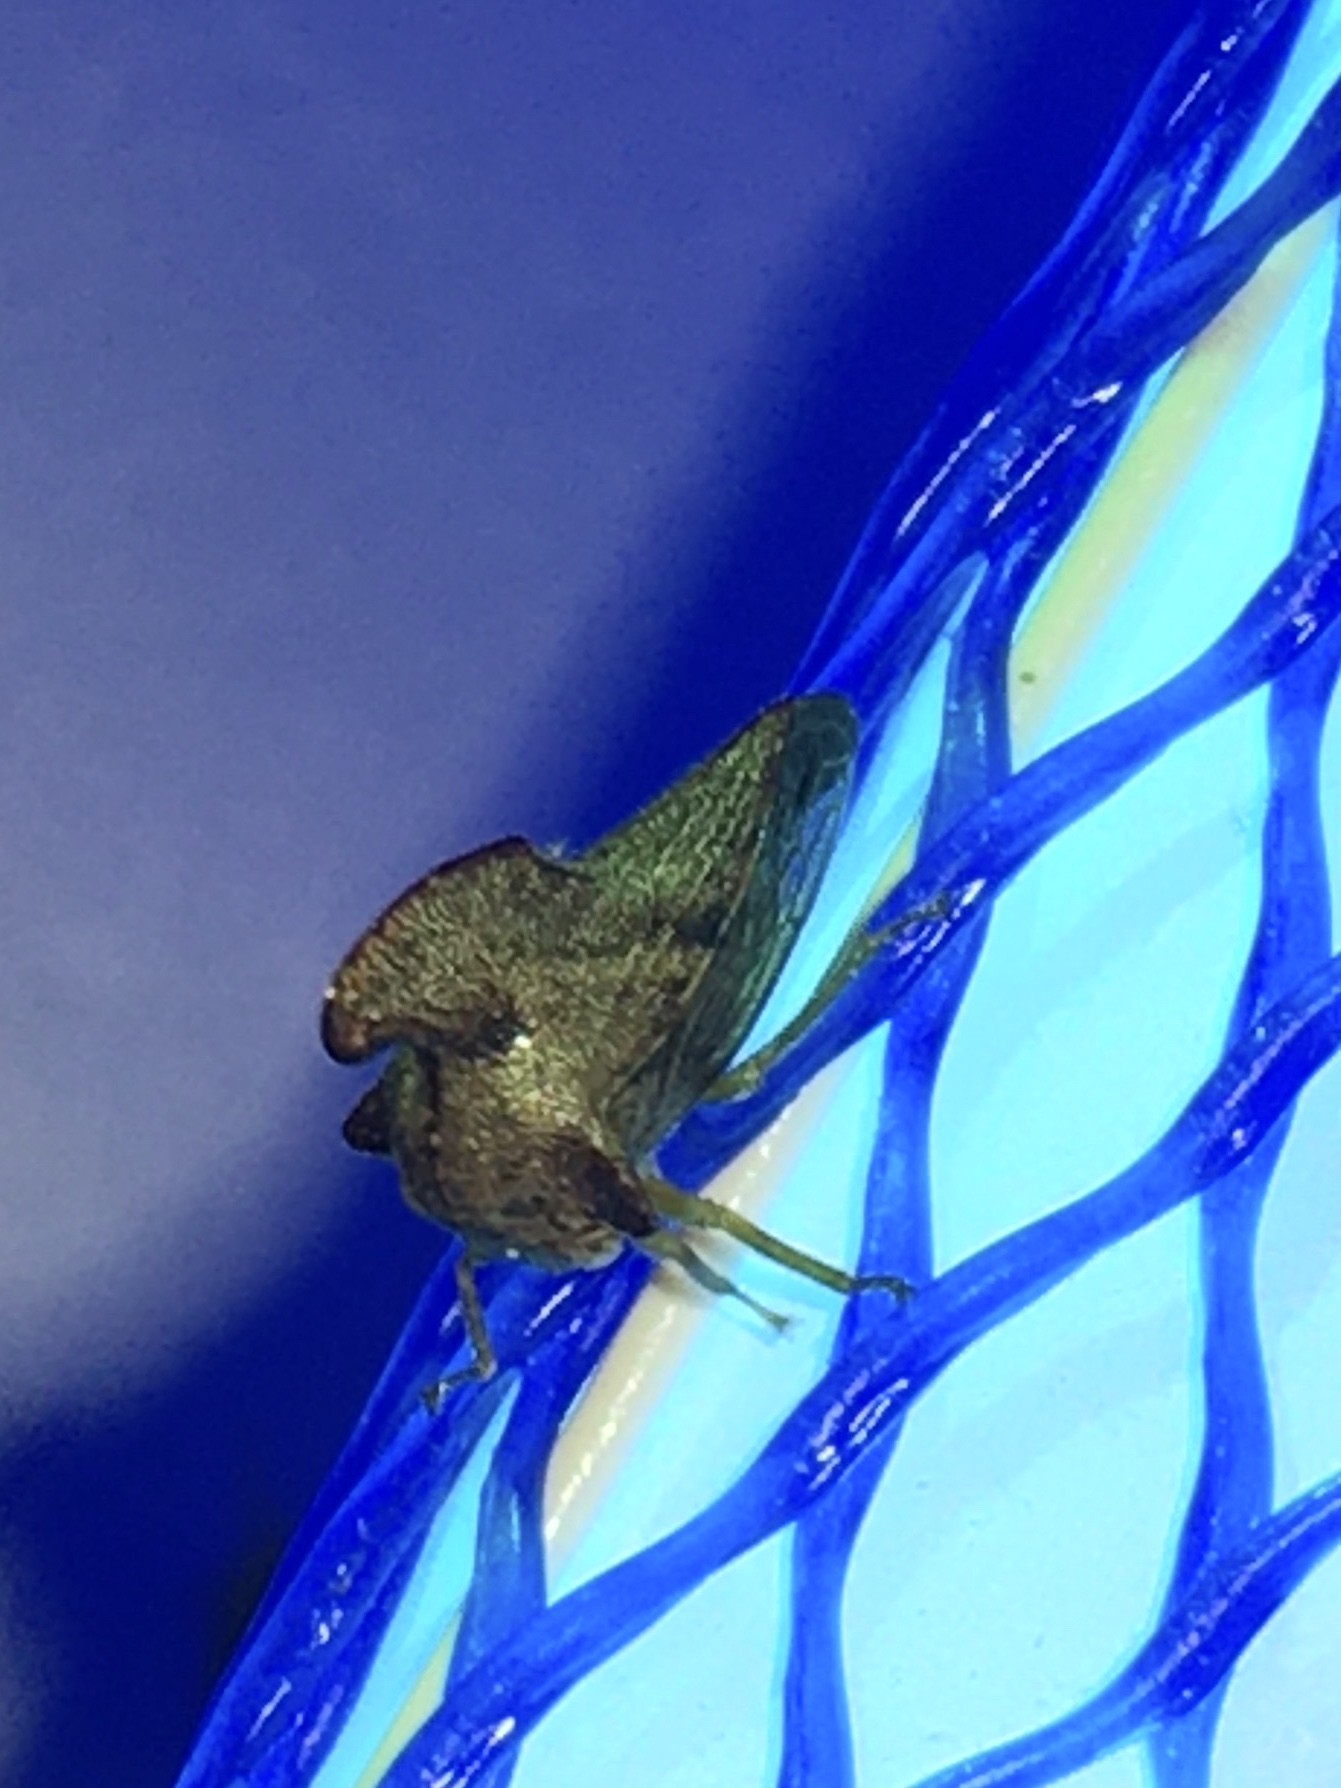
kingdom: Animalia
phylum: Arthropoda
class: Insecta
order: Hemiptera
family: Membracidae
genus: Telamona
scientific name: Telamona projecta
